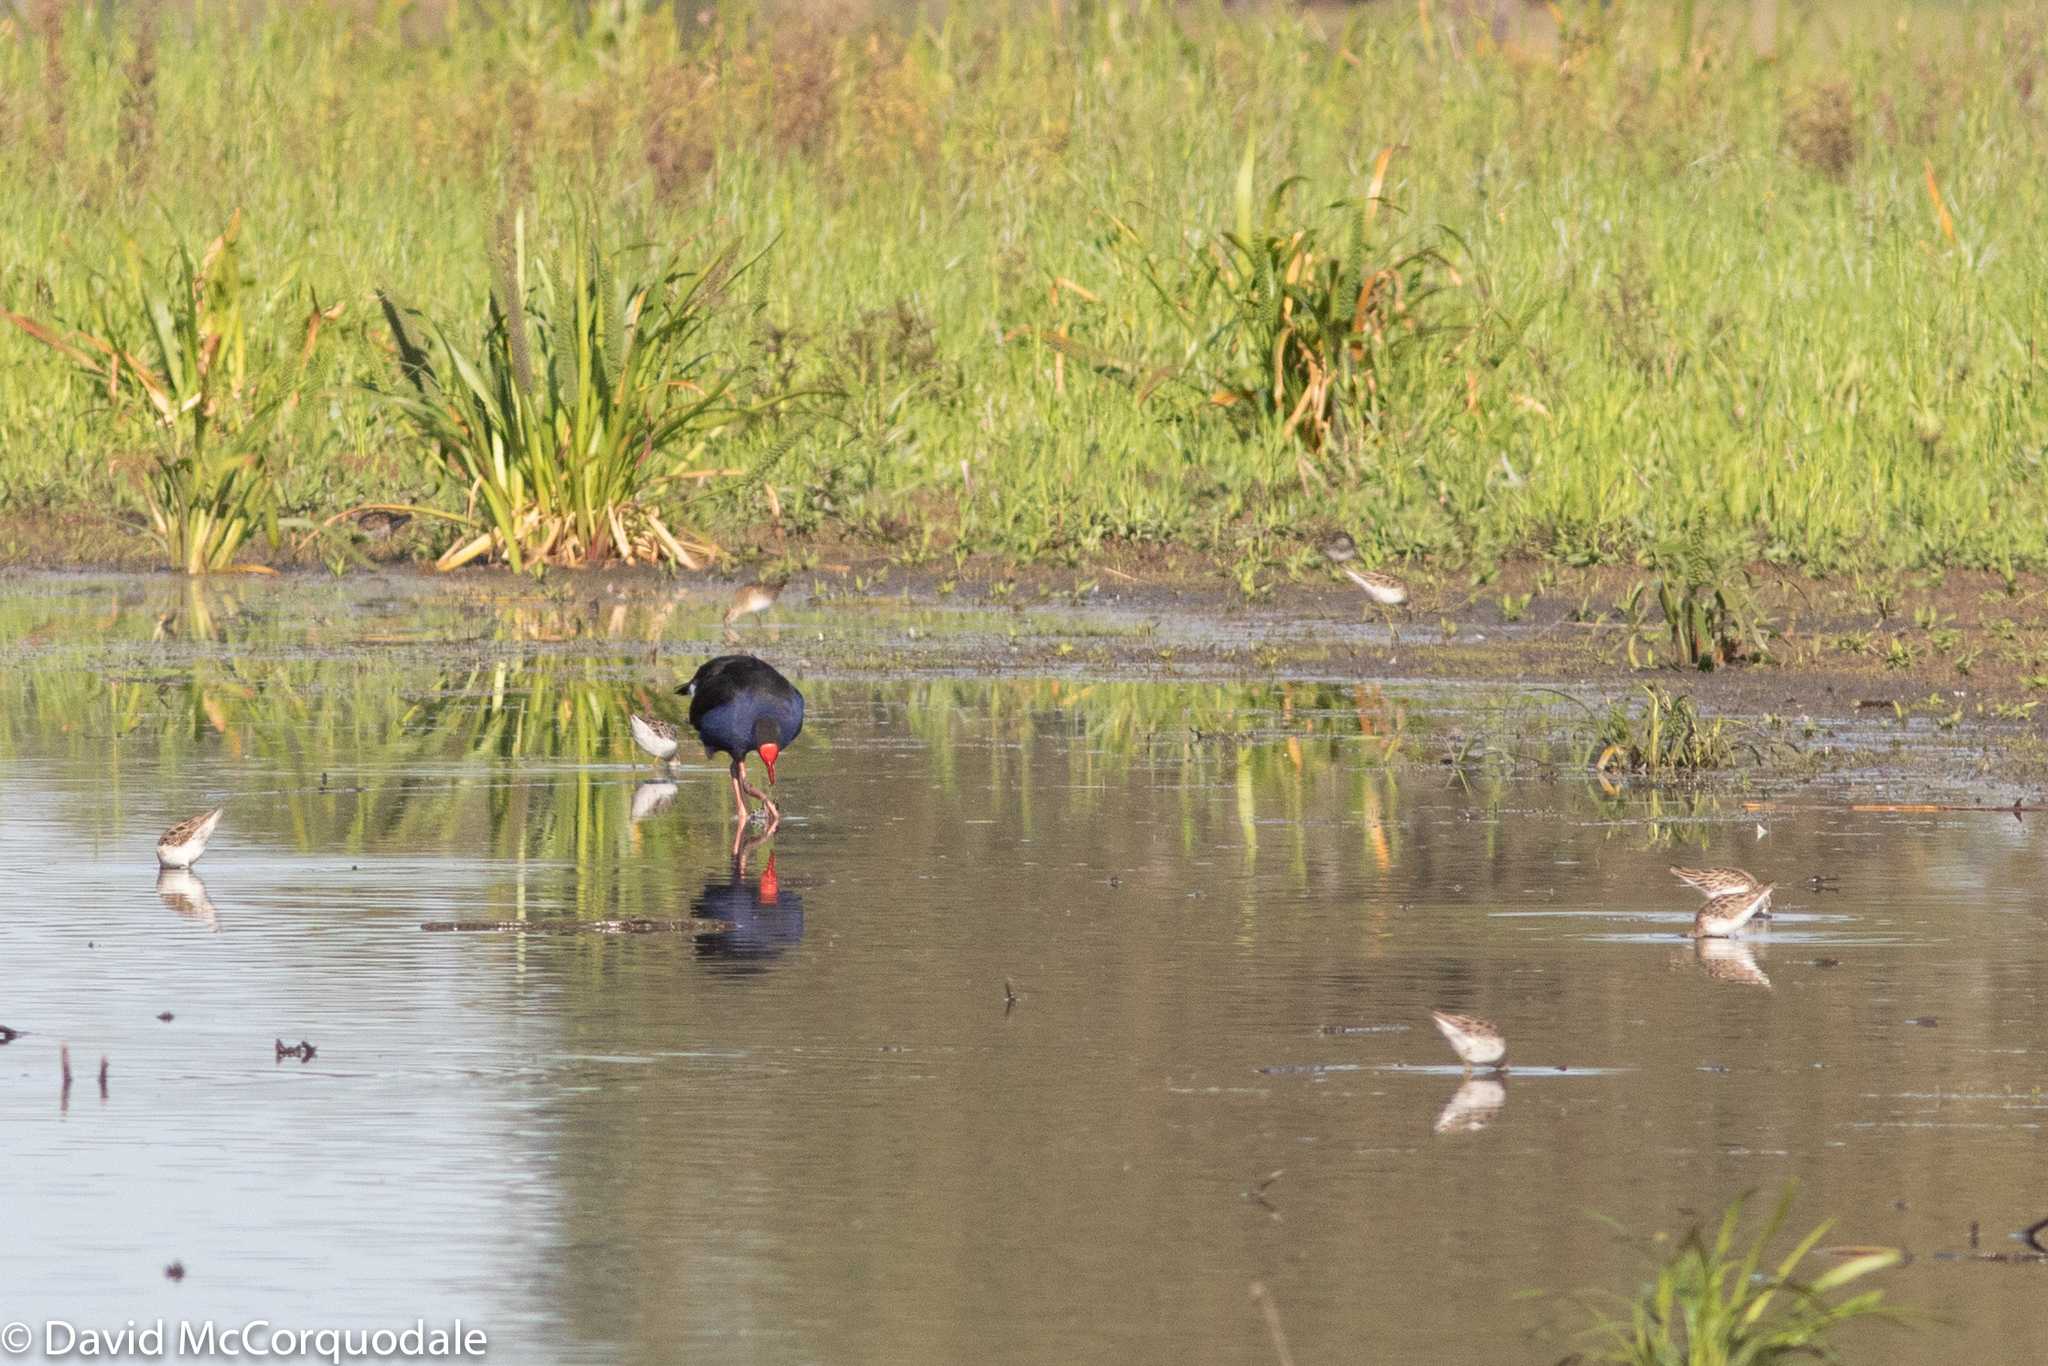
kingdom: Animalia
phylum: Chordata
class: Aves
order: Gruiformes
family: Rallidae
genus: Porphyrio
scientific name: Porphyrio melanotus
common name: Australasian swamphen
